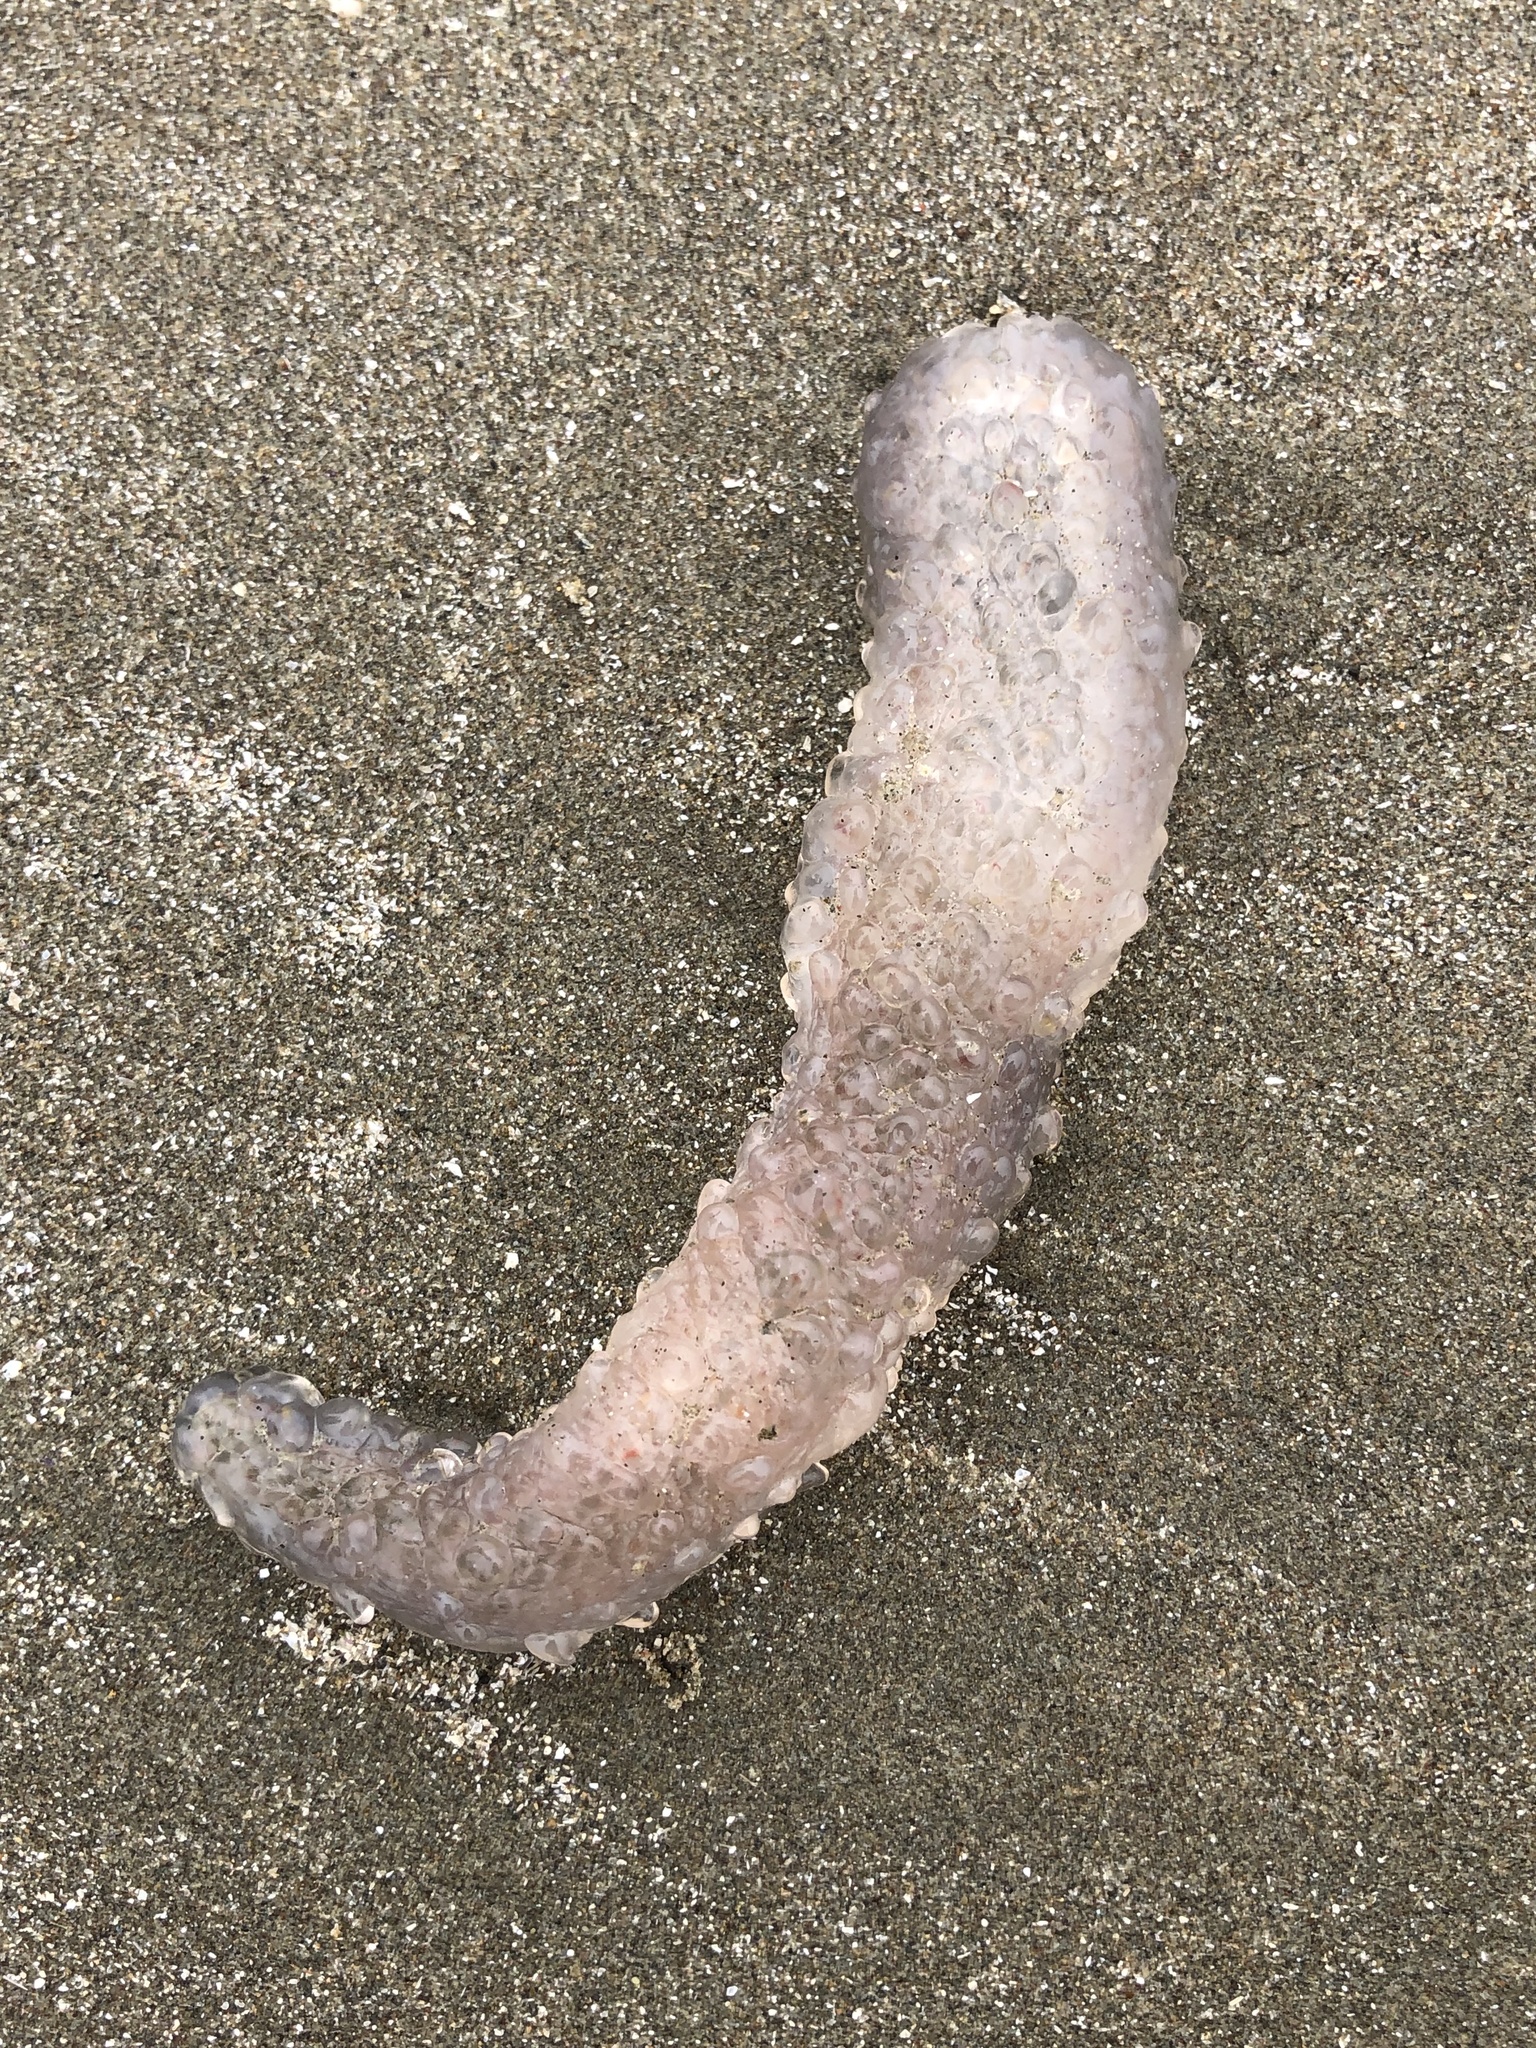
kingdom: Animalia
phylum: Chordata
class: Thaliacea
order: Pyrosomatida
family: Pyrosomatidae
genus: Pyrosoma
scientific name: Pyrosoma atlanticum
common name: Atlantic pyrosomes
